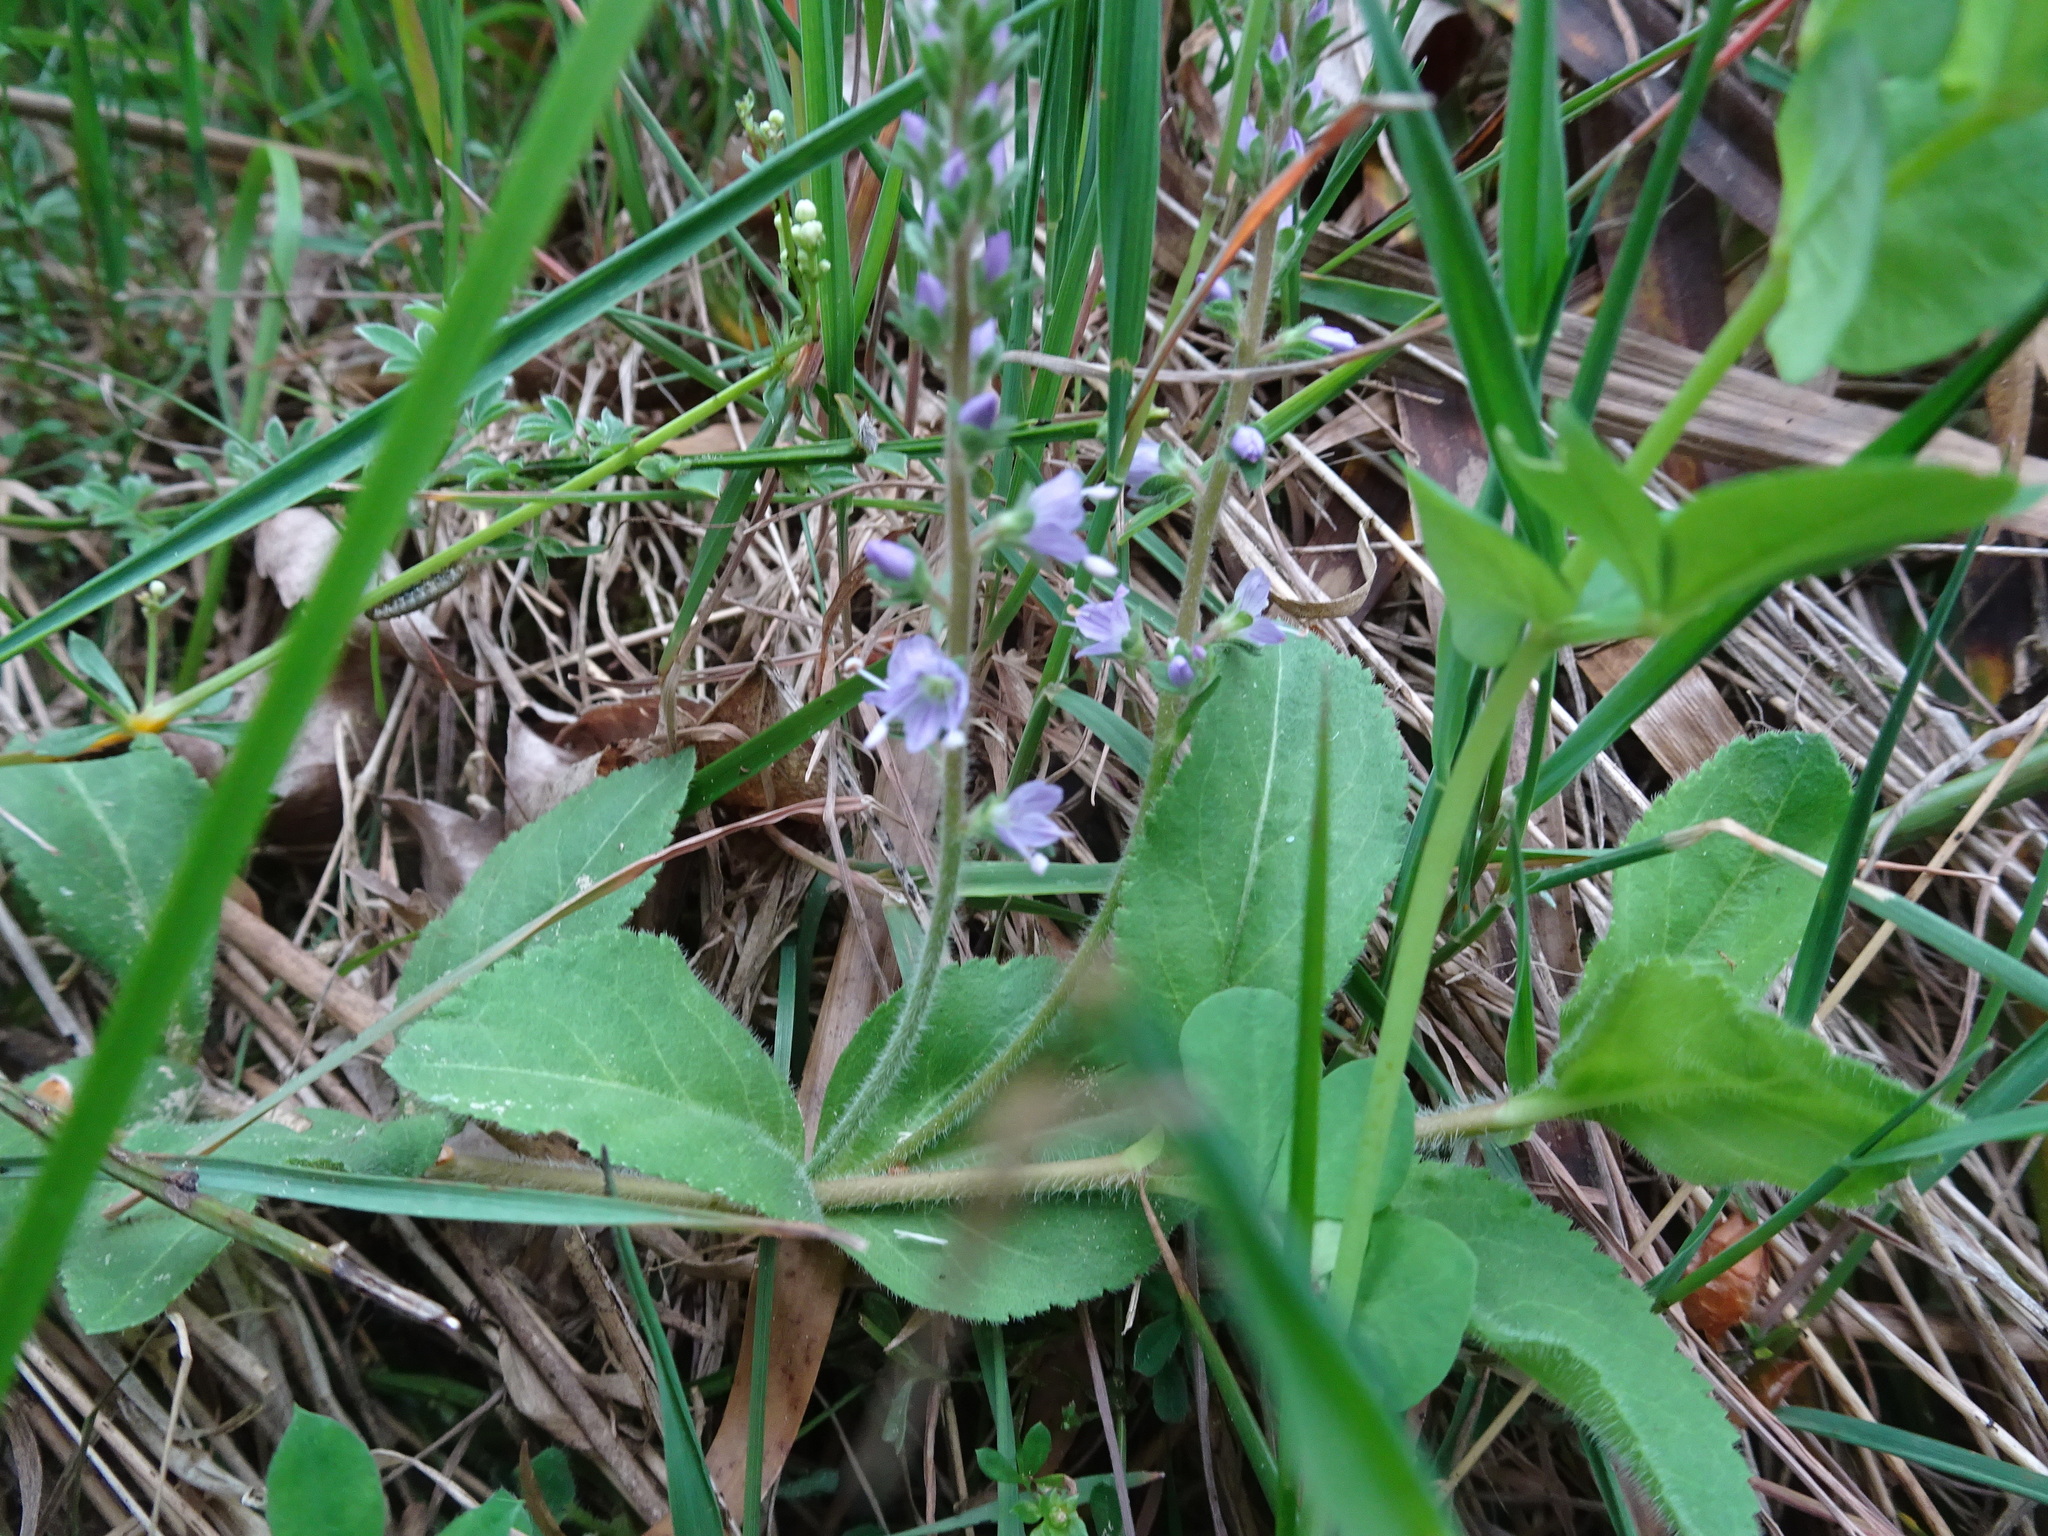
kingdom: Plantae
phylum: Tracheophyta
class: Magnoliopsida
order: Lamiales
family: Plantaginaceae
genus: Veronica
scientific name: Veronica officinalis
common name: Common speedwell
